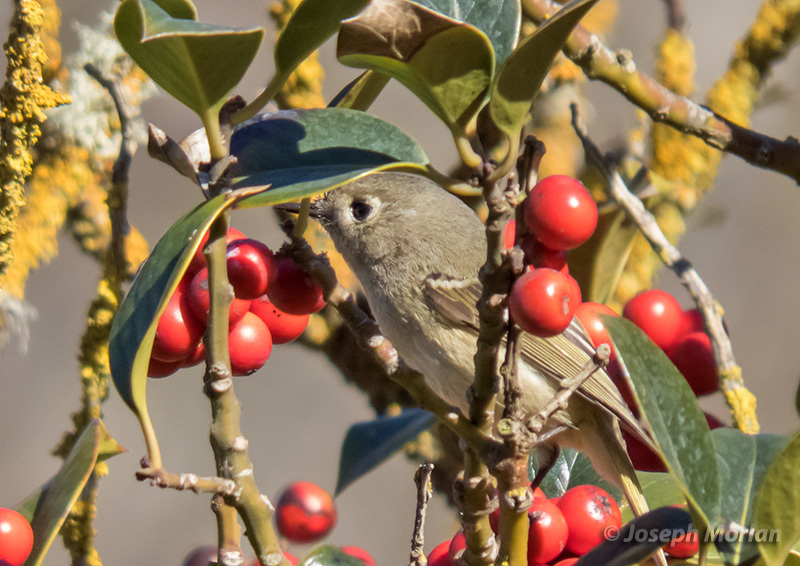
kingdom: Animalia
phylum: Chordata
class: Aves
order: Passeriformes
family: Regulidae
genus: Regulus
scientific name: Regulus calendula
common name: Ruby-crowned kinglet
